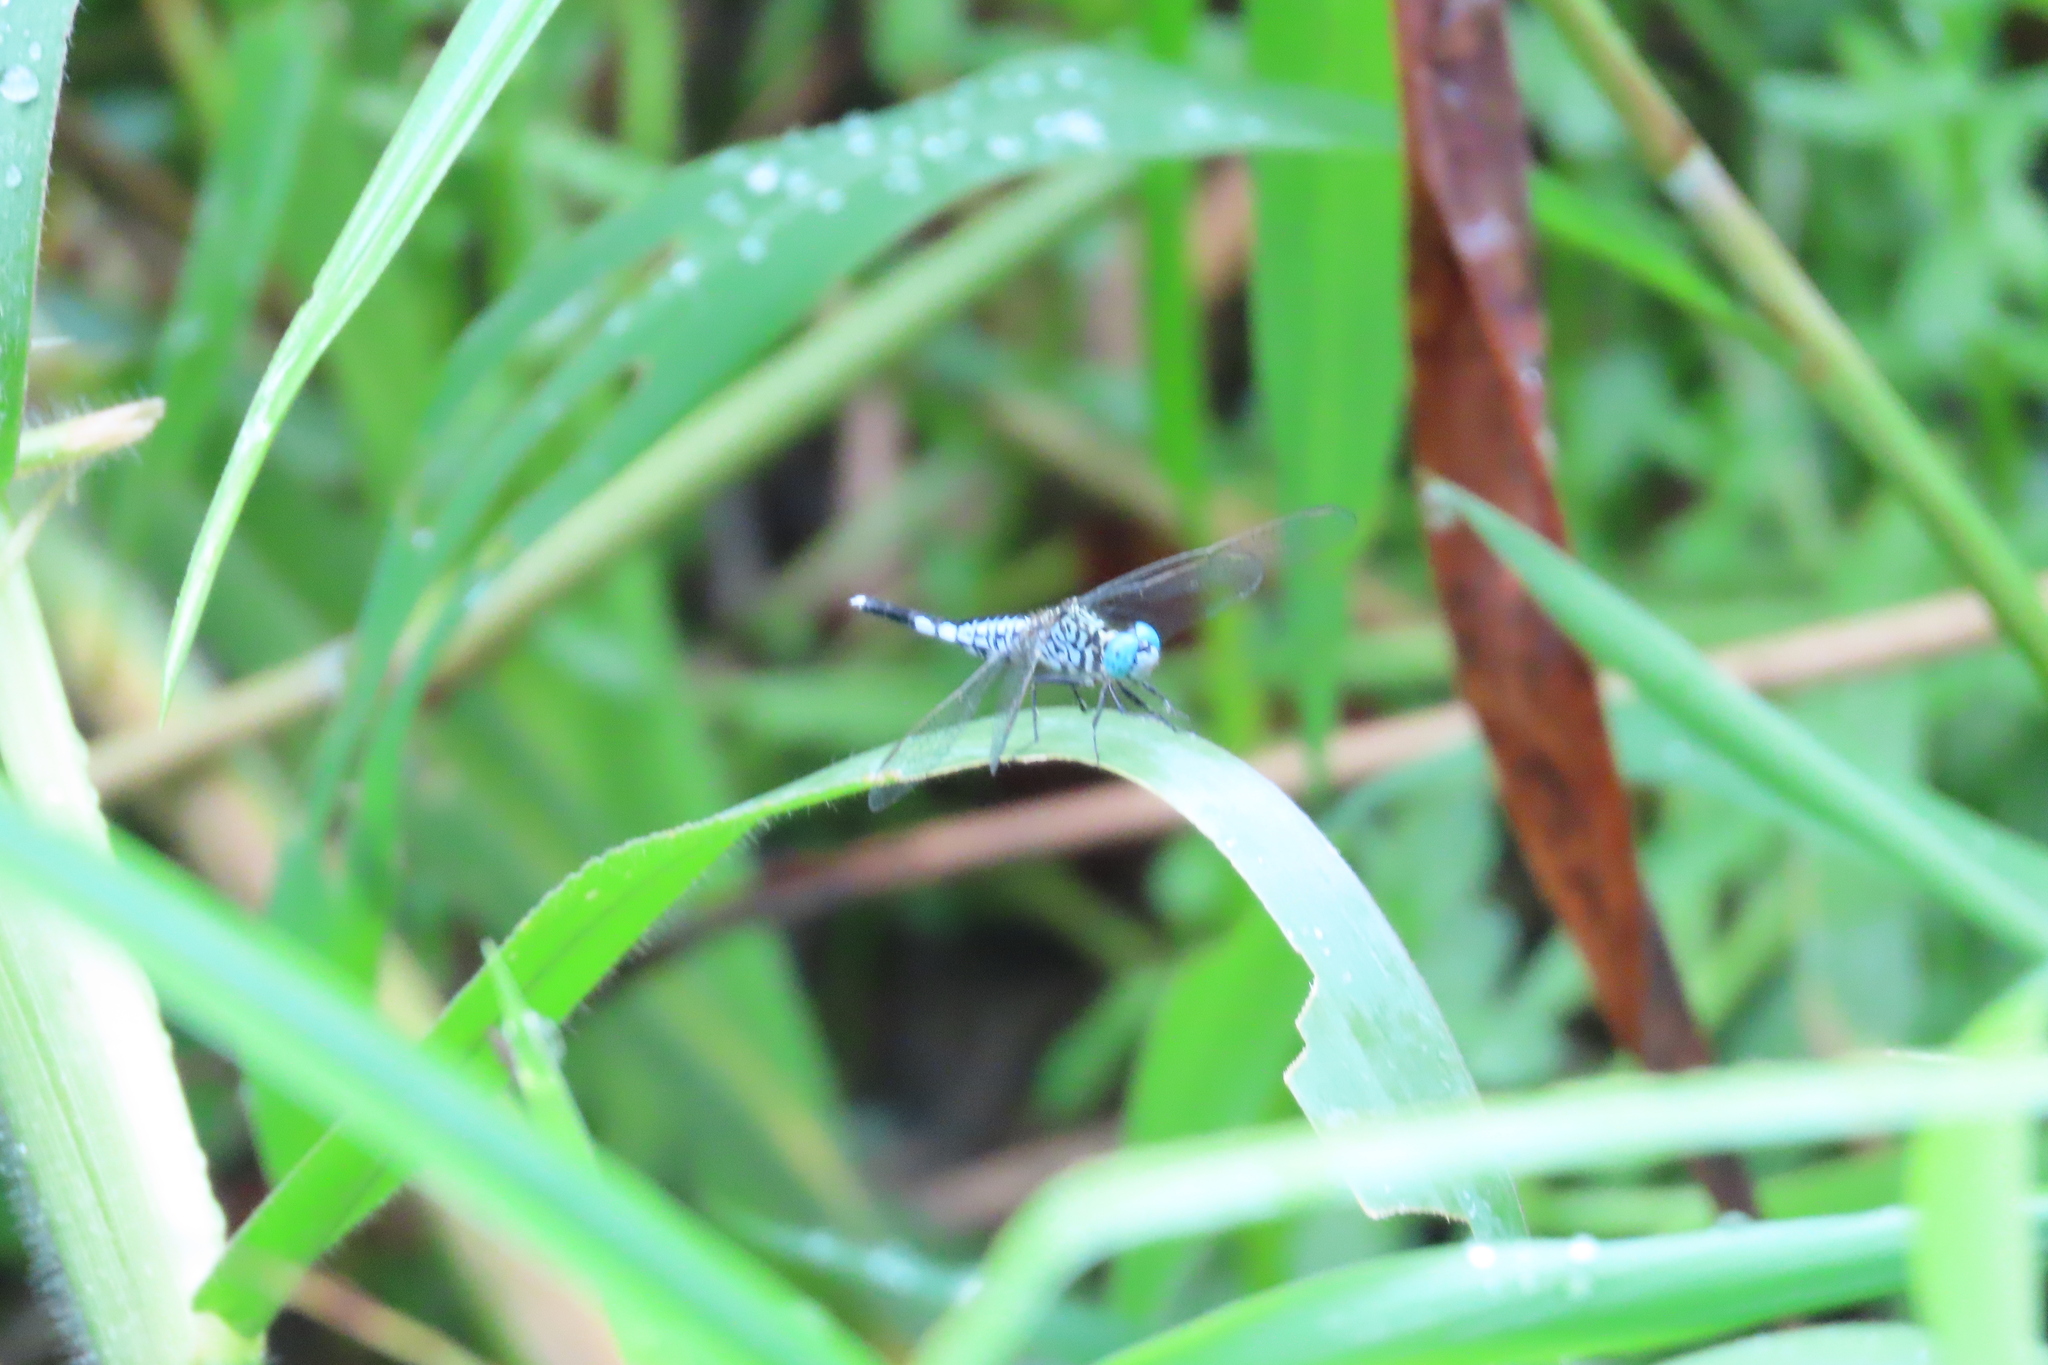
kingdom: Animalia
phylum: Arthropoda
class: Insecta
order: Odonata
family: Libellulidae
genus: Acisoma
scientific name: Acisoma panorpoides
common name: Asian pintail
